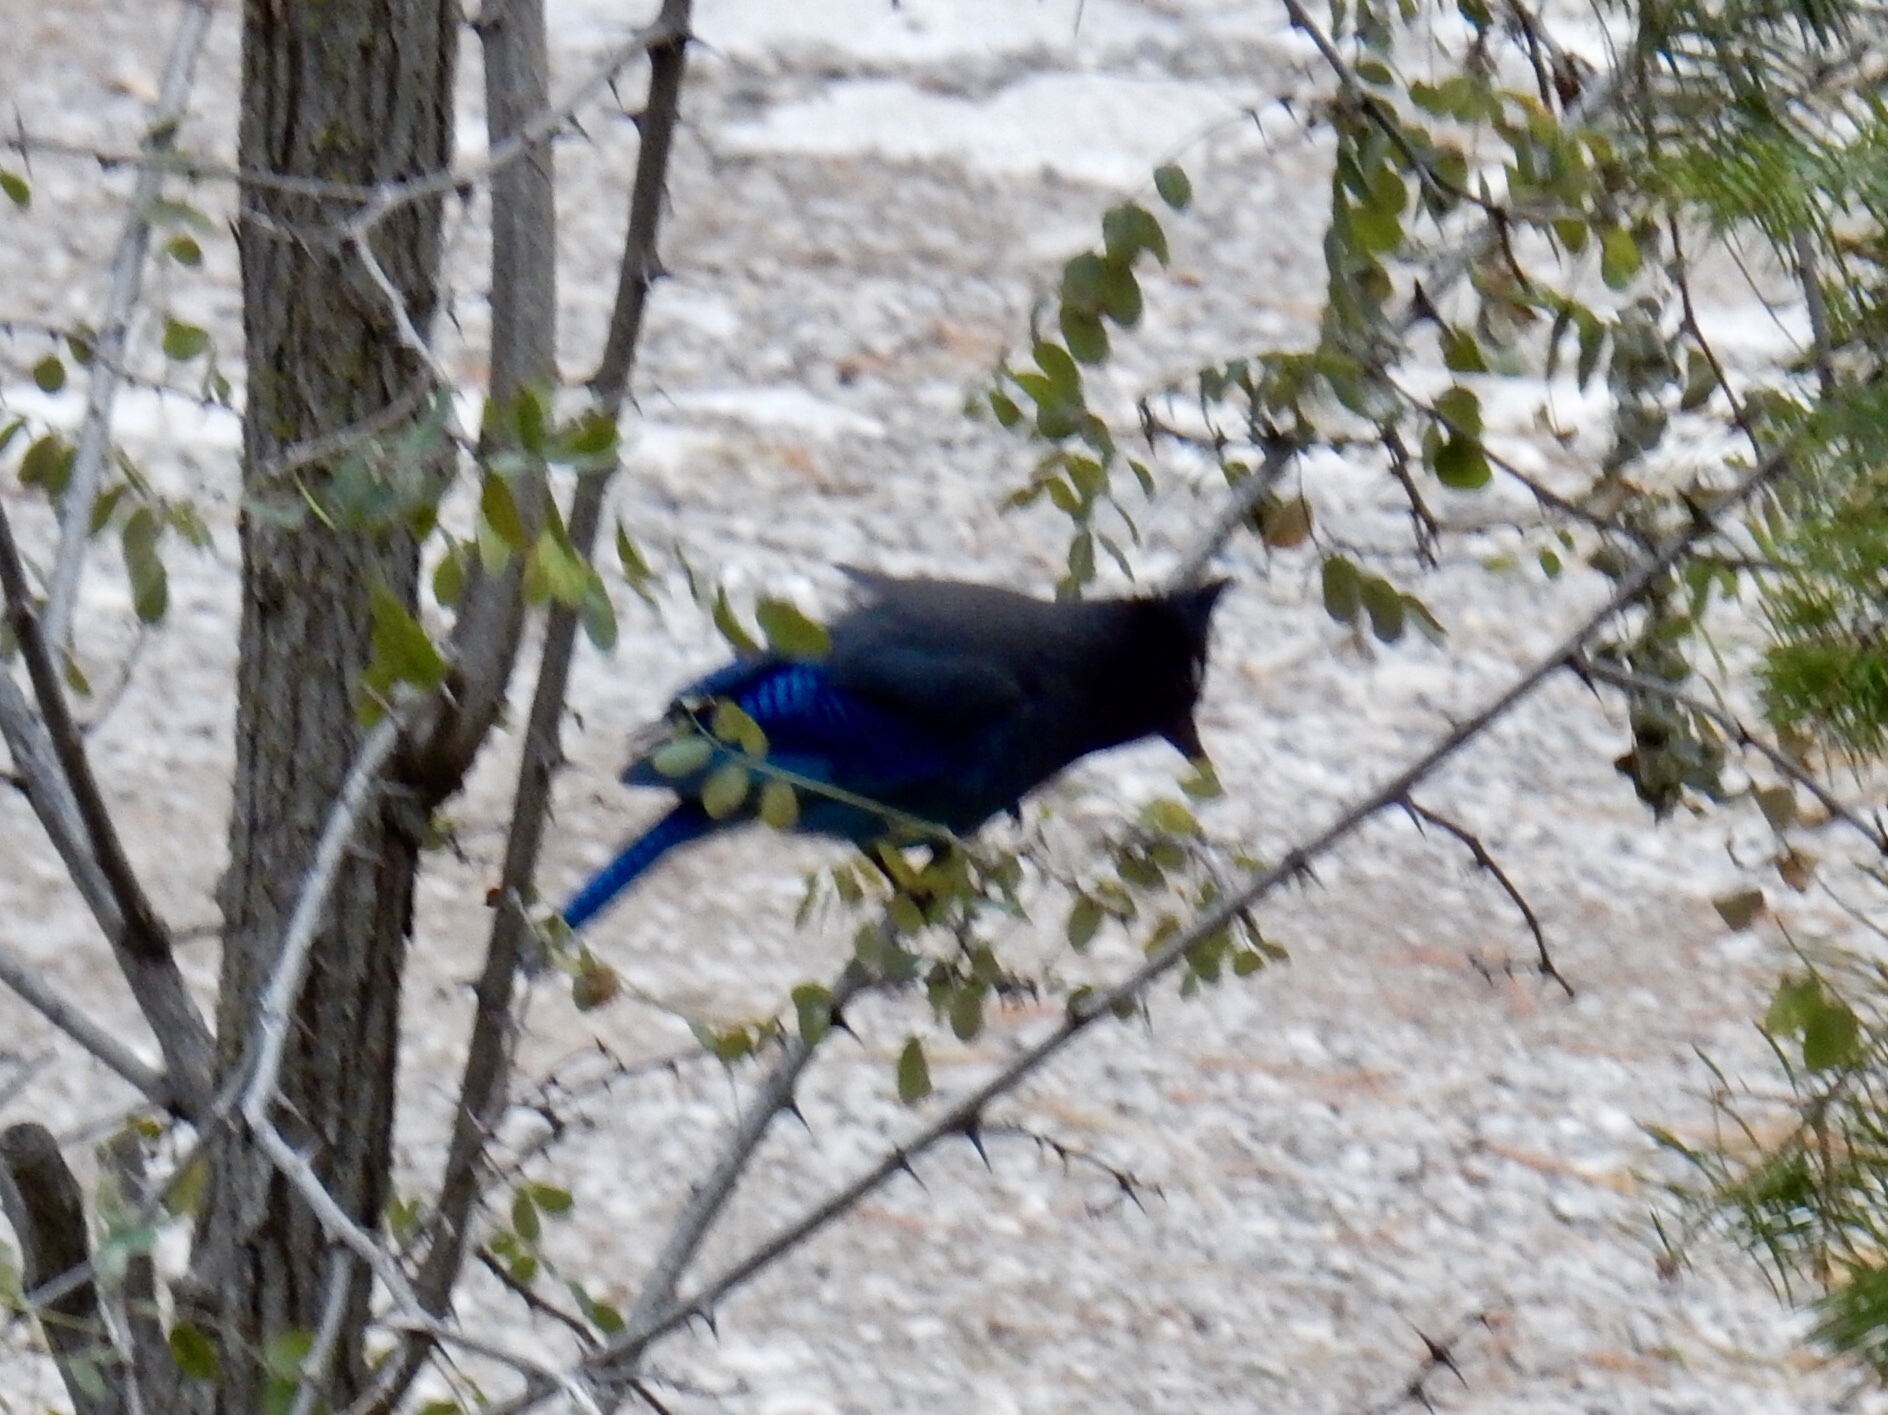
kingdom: Animalia
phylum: Chordata
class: Aves
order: Passeriformes
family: Corvidae
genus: Cyanocitta
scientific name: Cyanocitta stelleri
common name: Steller's jay
